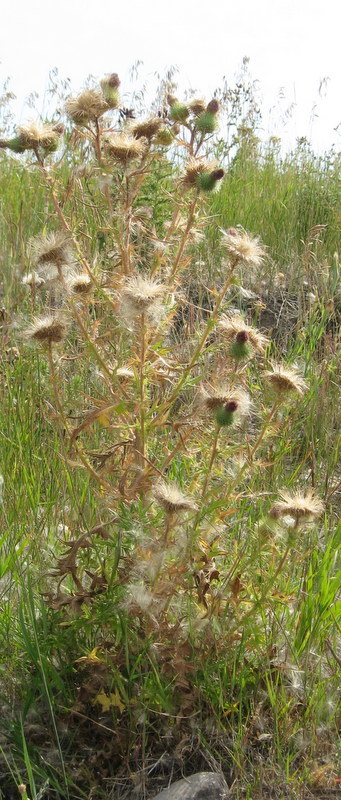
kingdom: Plantae
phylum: Tracheophyta
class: Magnoliopsida
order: Asterales
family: Asteraceae
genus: Cirsium
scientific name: Cirsium vulgare
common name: Bull thistle
